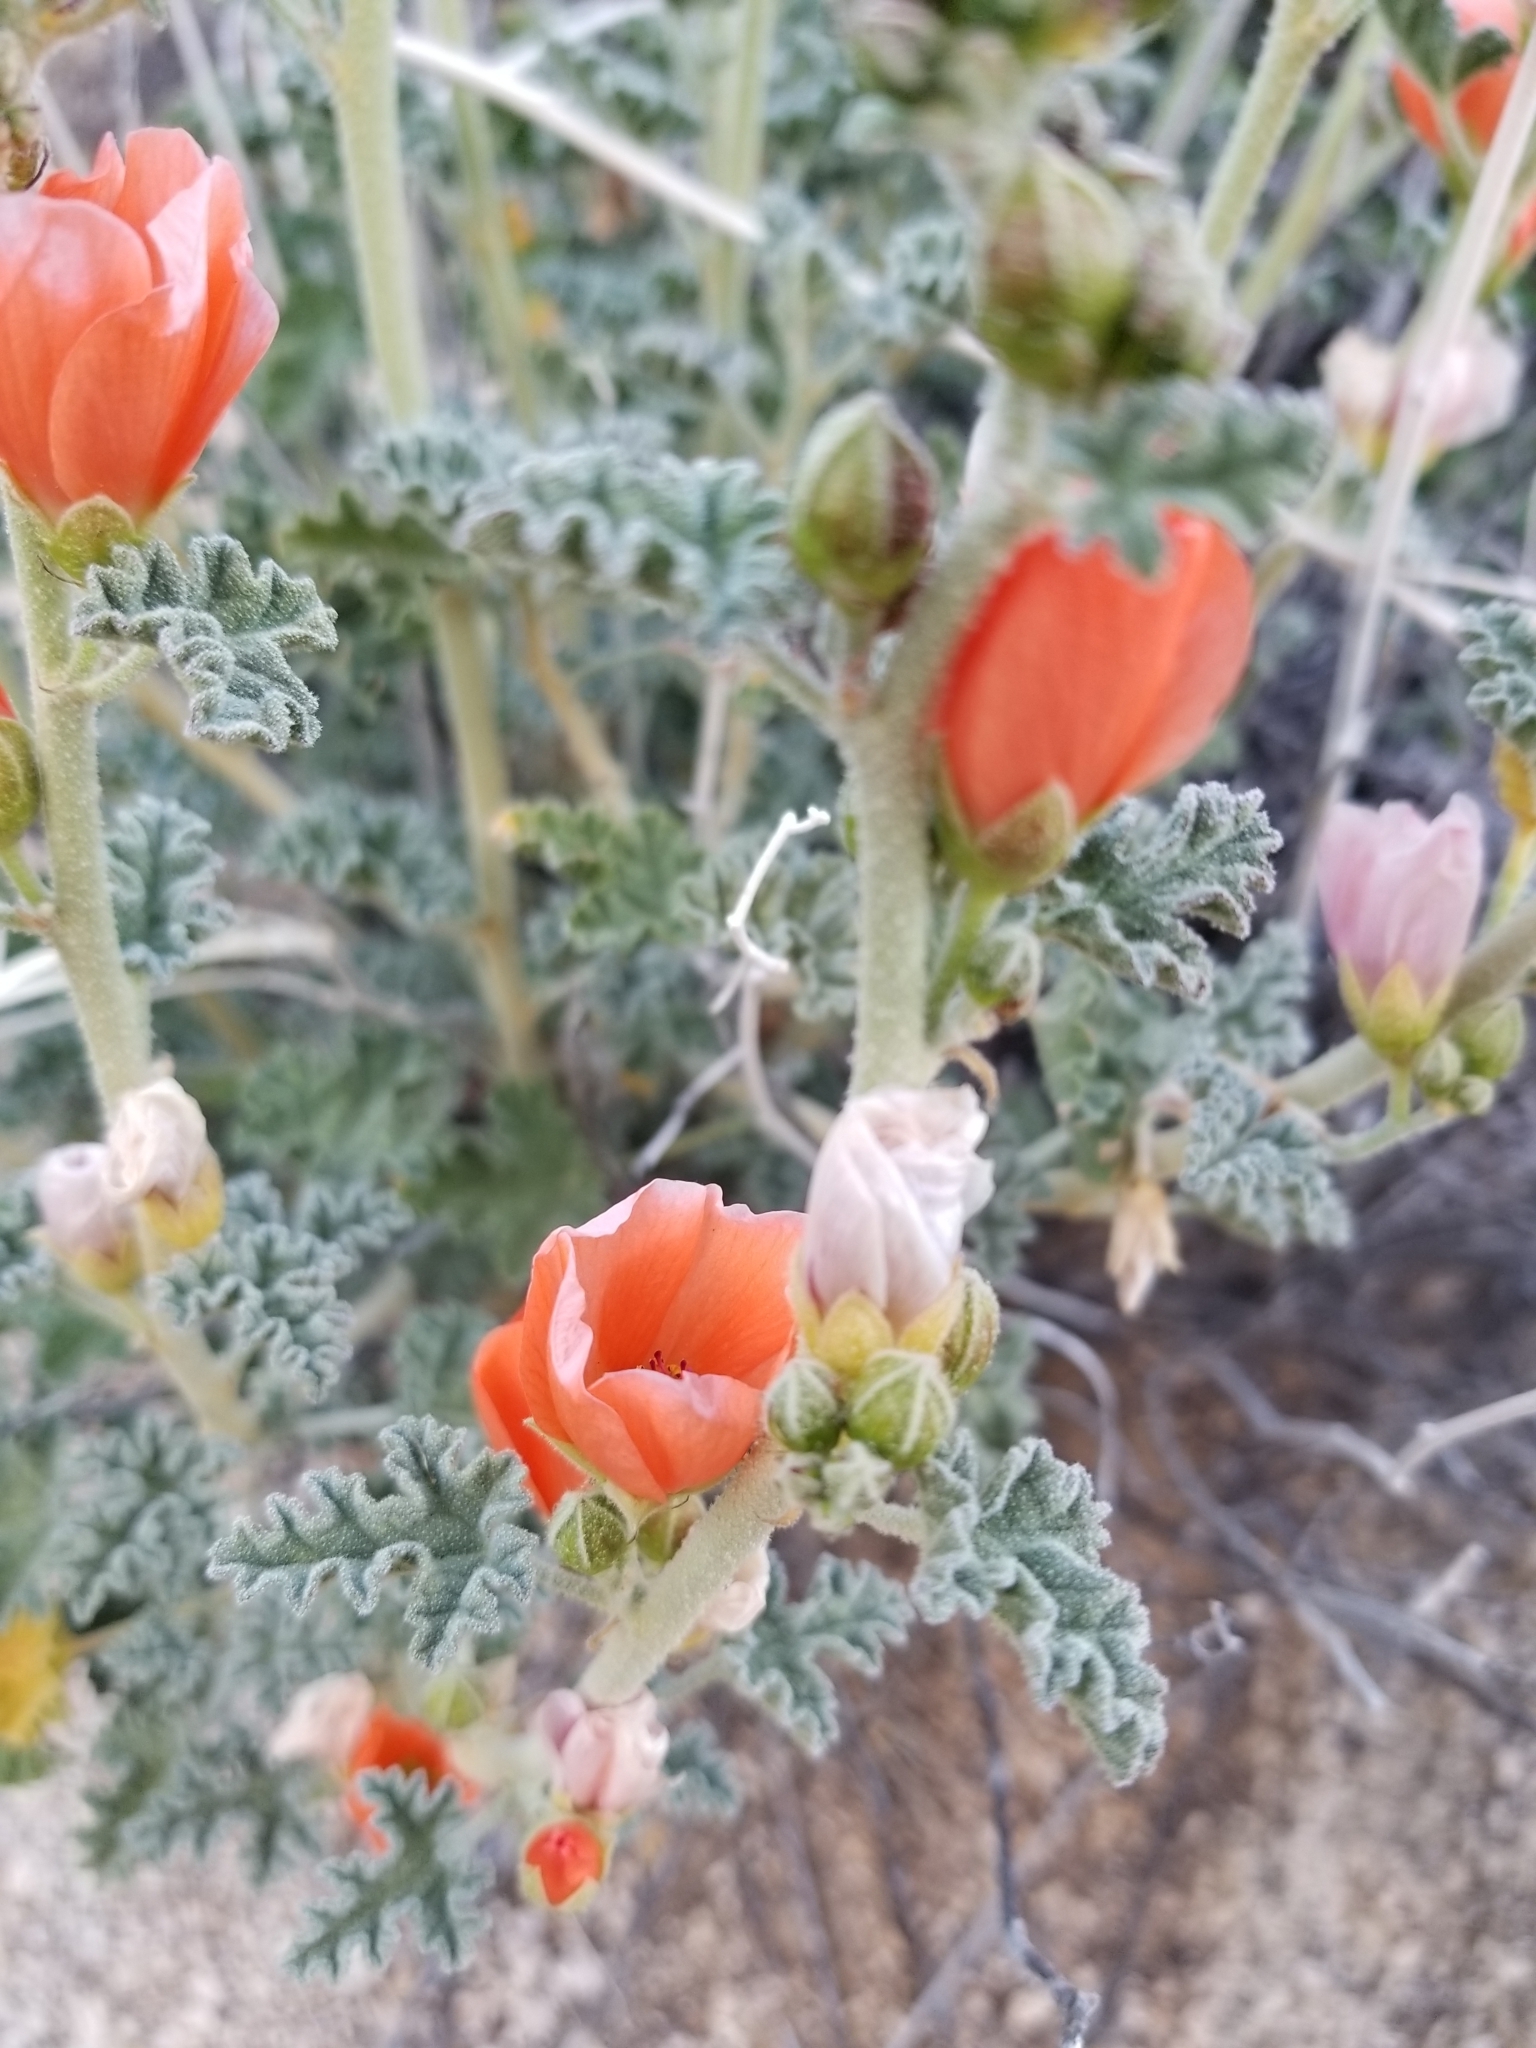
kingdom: Plantae
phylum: Tracheophyta
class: Magnoliopsida
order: Malvales
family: Malvaceae
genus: Sphaeralcea
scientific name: Sphaeralcea ambigua
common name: Apricot globe-mallow
